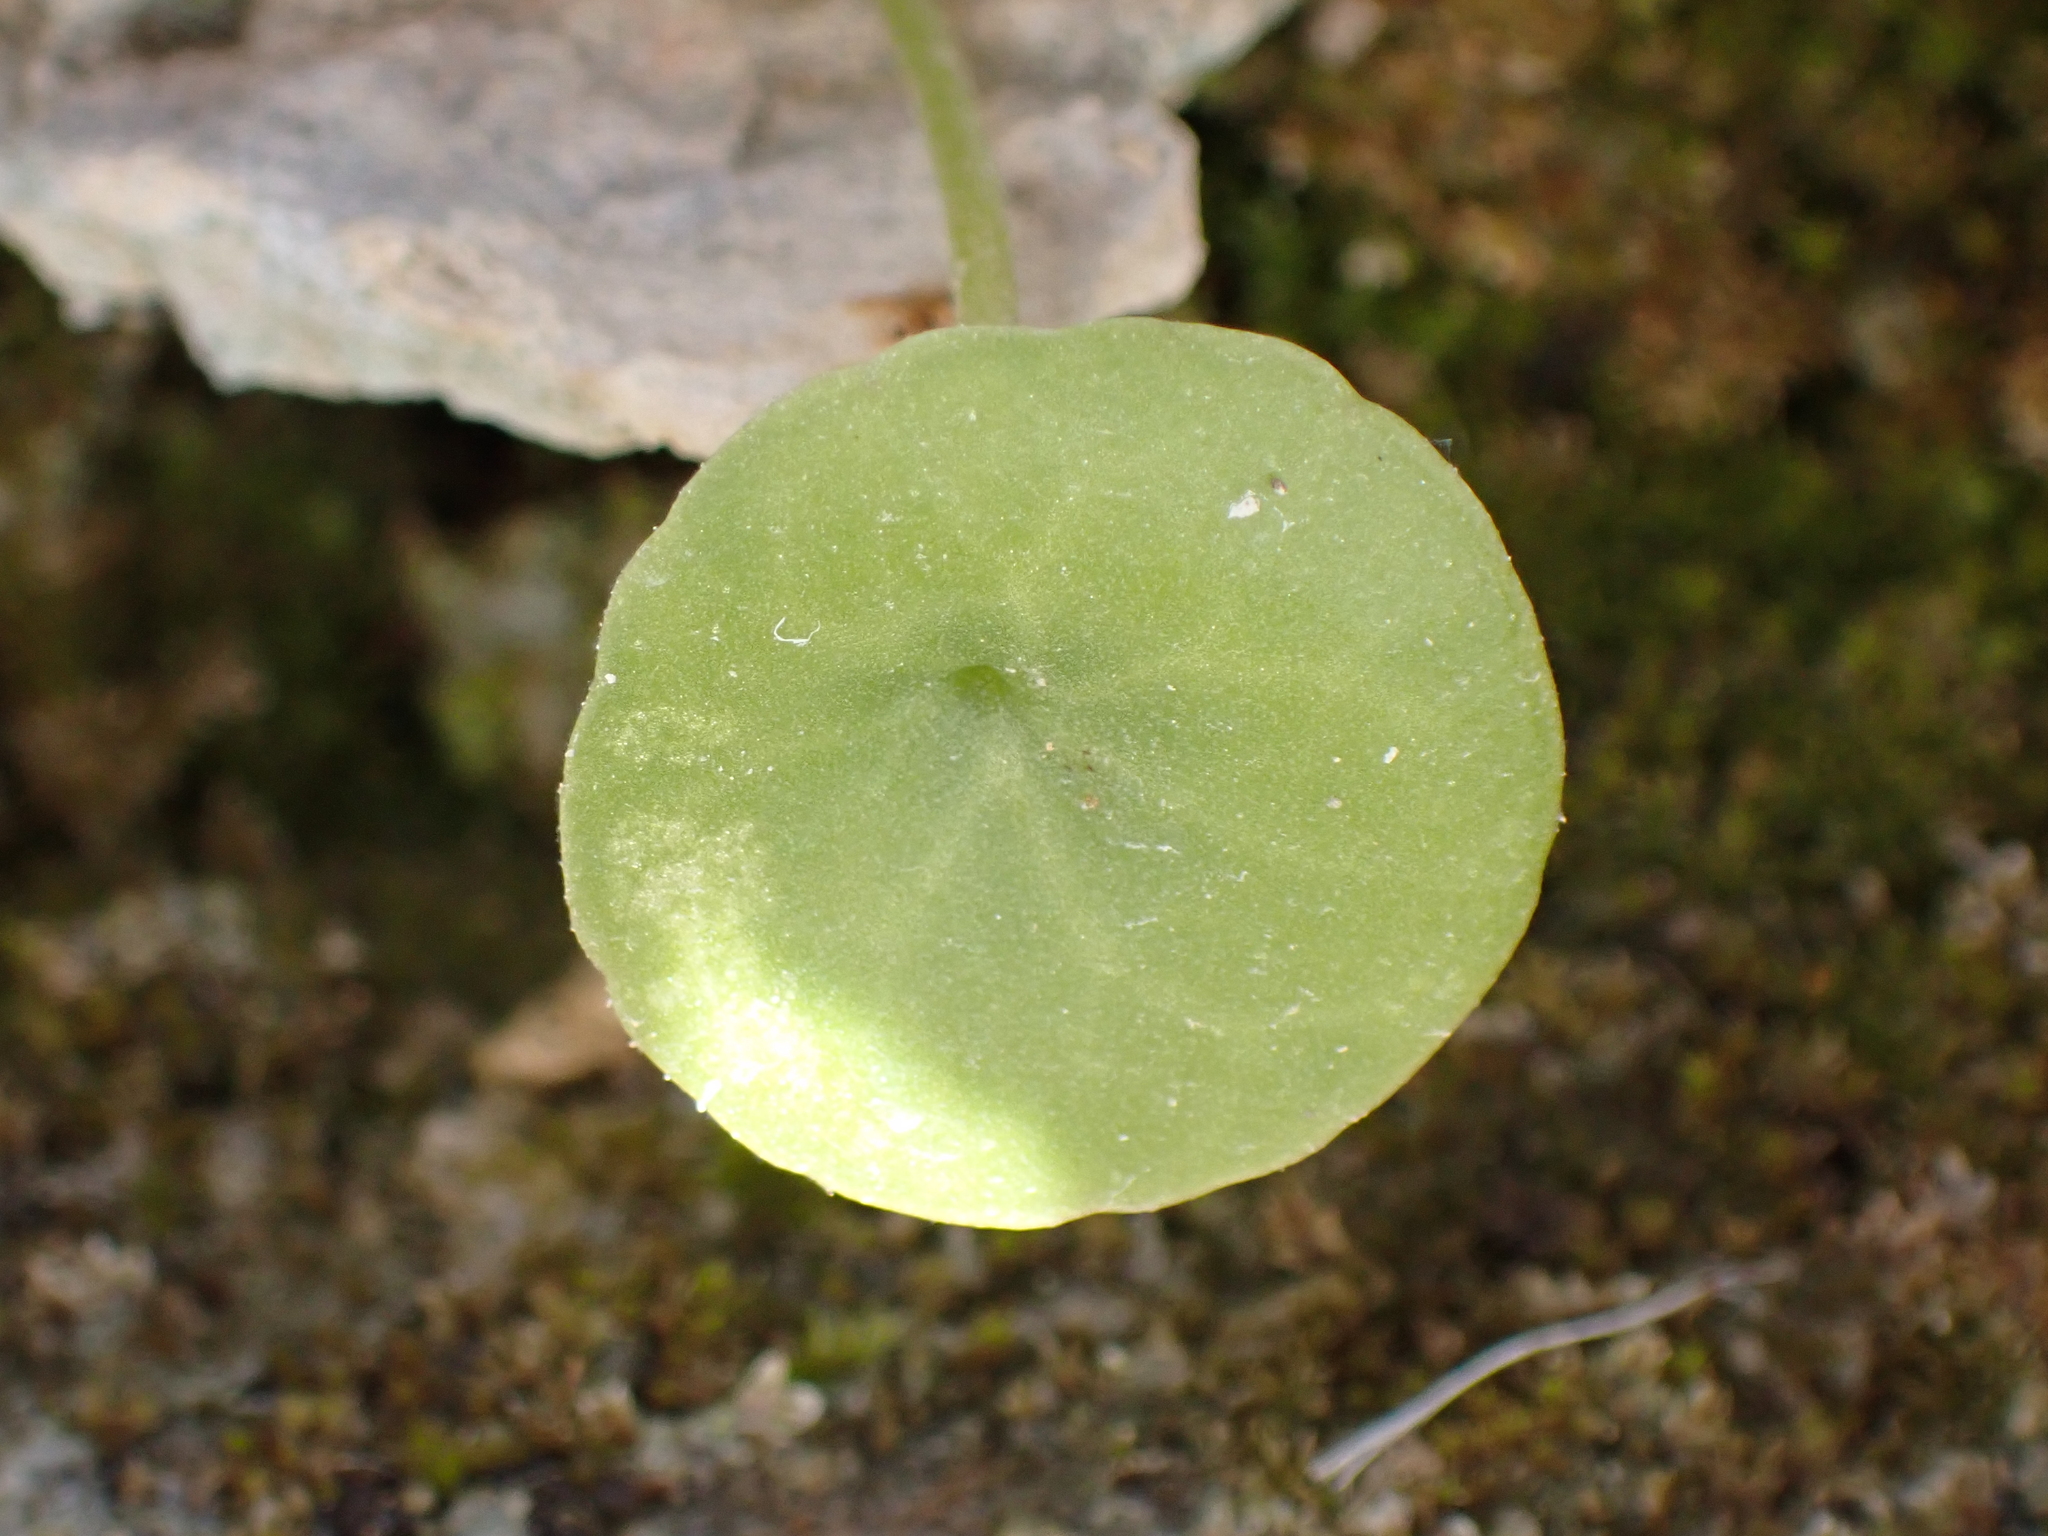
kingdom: Plantae
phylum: Tracheophyta
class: Magnoliopsida
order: Saxifragales
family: Crassulaceae
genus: Umbilicus
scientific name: Umbilicus rupestris
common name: Navelwort
